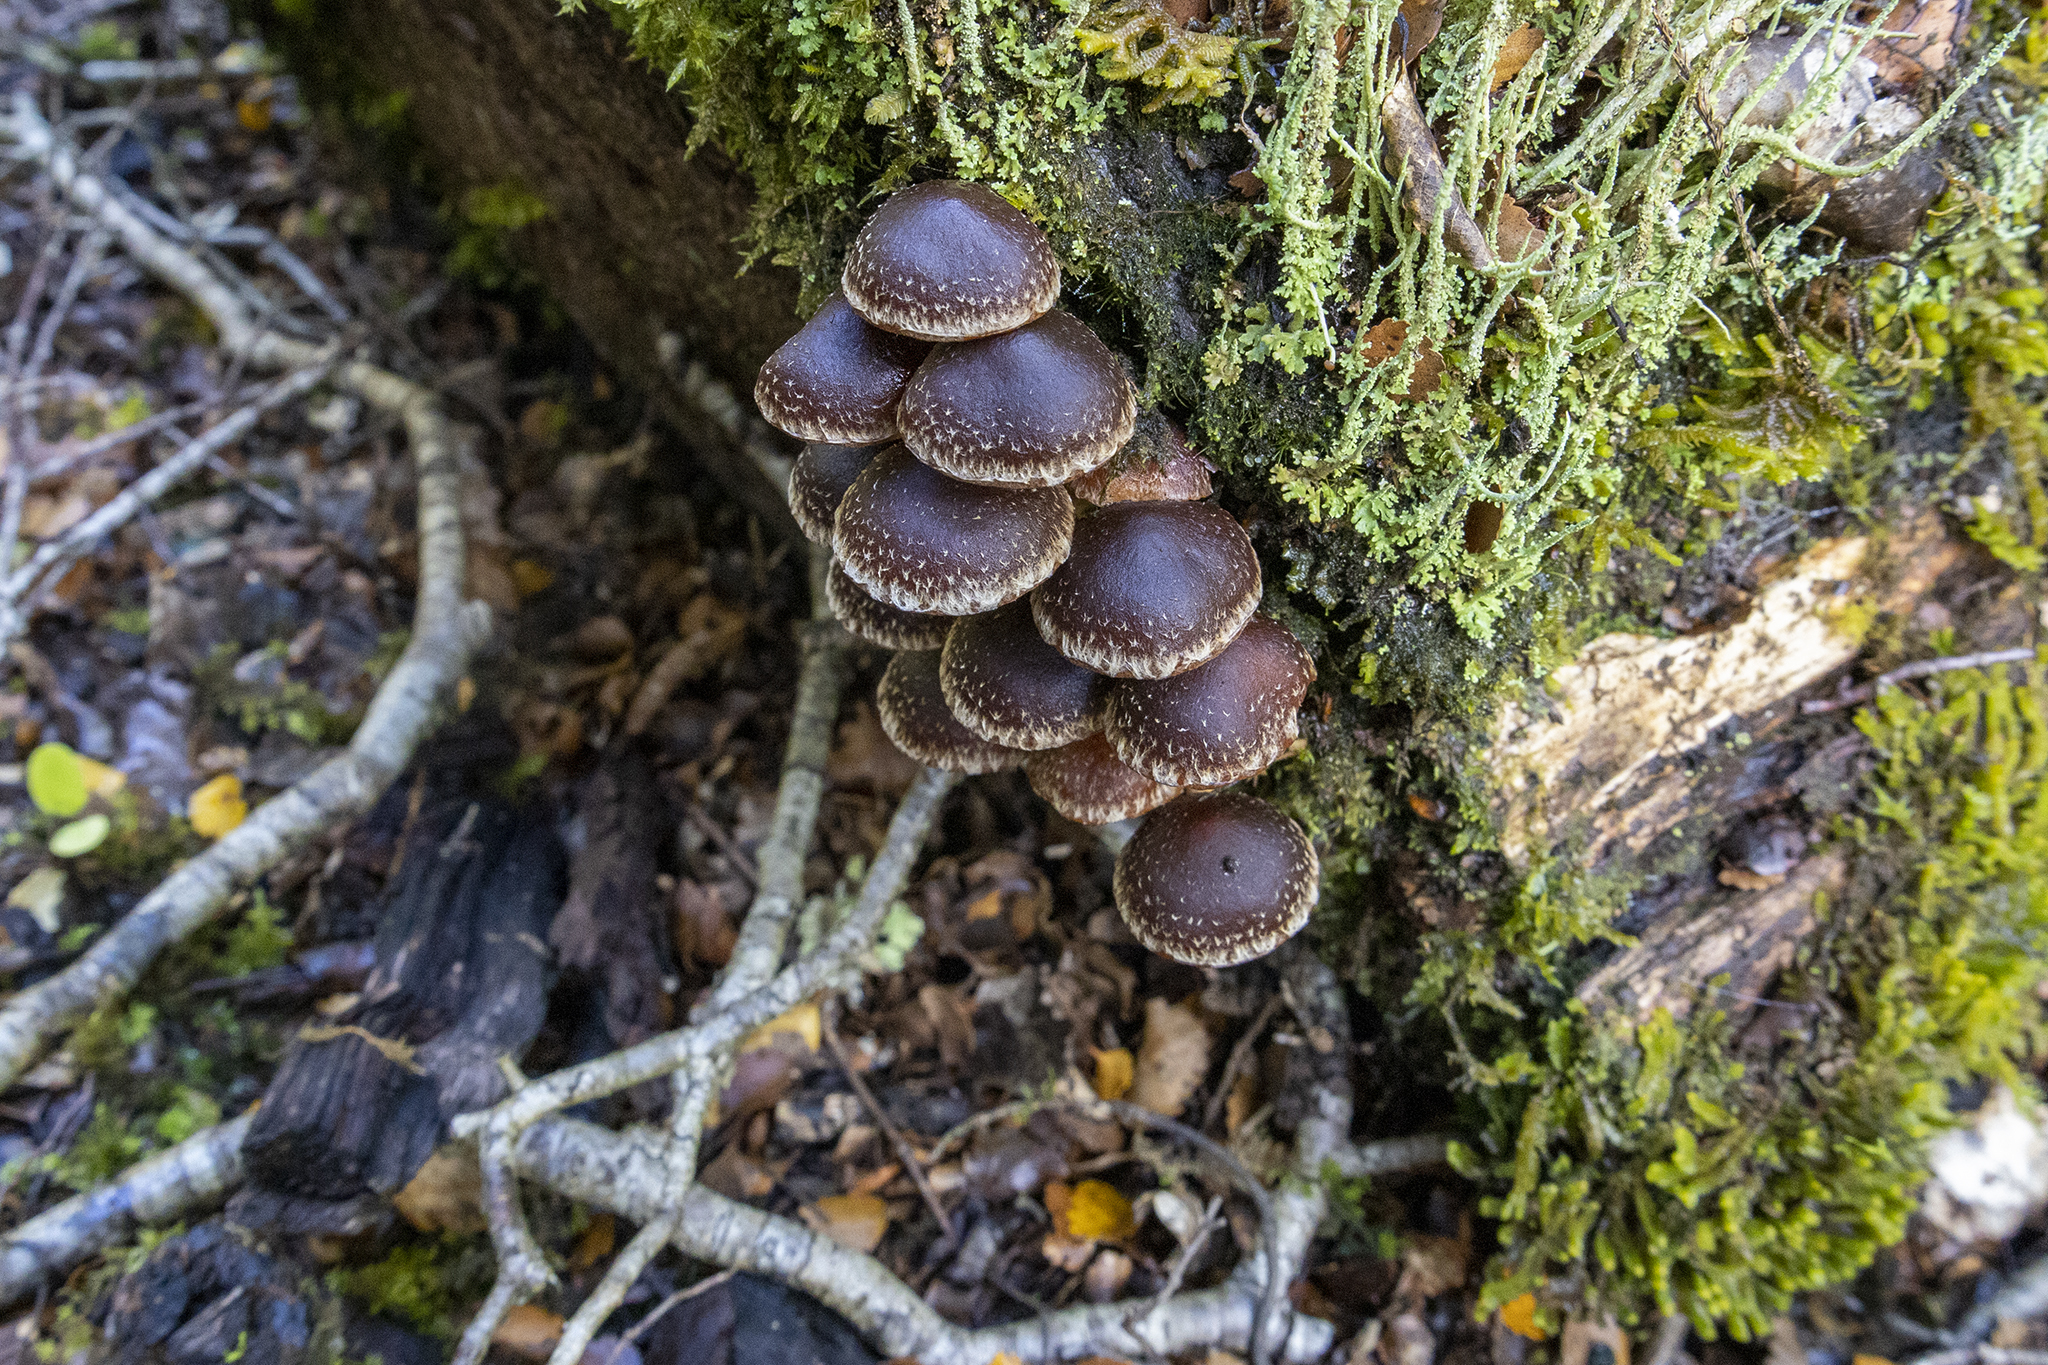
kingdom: Fungi
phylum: Basidiomycota
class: Agaricomycetes
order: Agaricales
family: Strophariaceae
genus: Hypholoma
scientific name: Hypholoma brunneum
